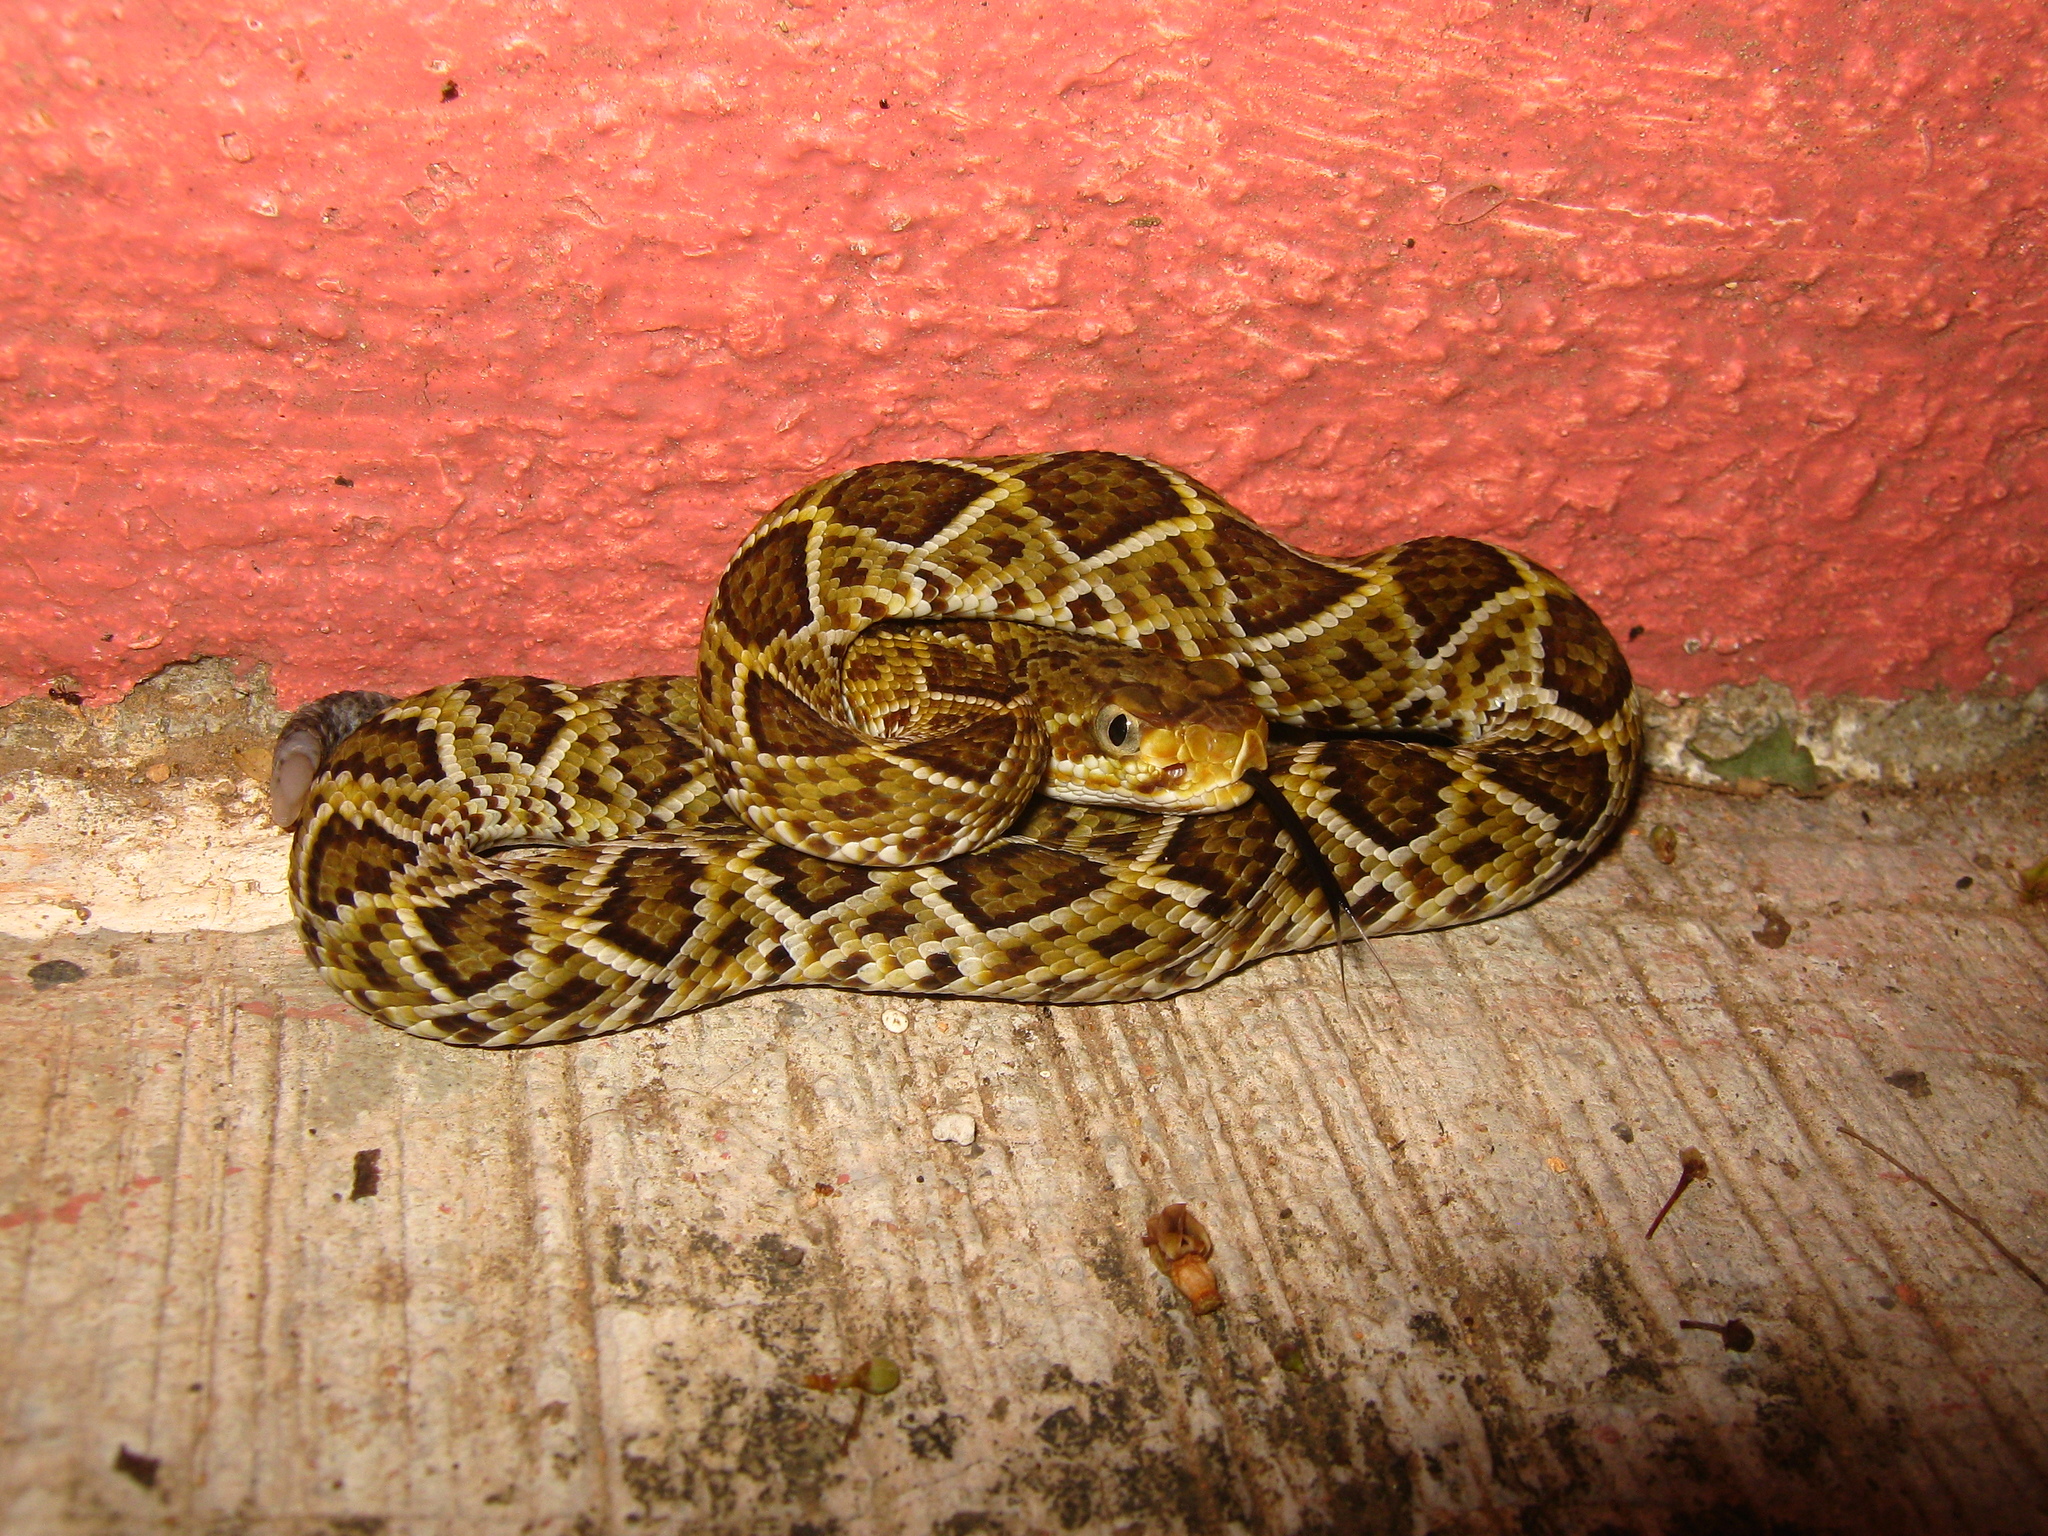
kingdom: Animalia
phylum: Chordata
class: Squamata
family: Viperidae
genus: Crotalus
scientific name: Crotalus basiliscus
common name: Basilisk rattlesnake
